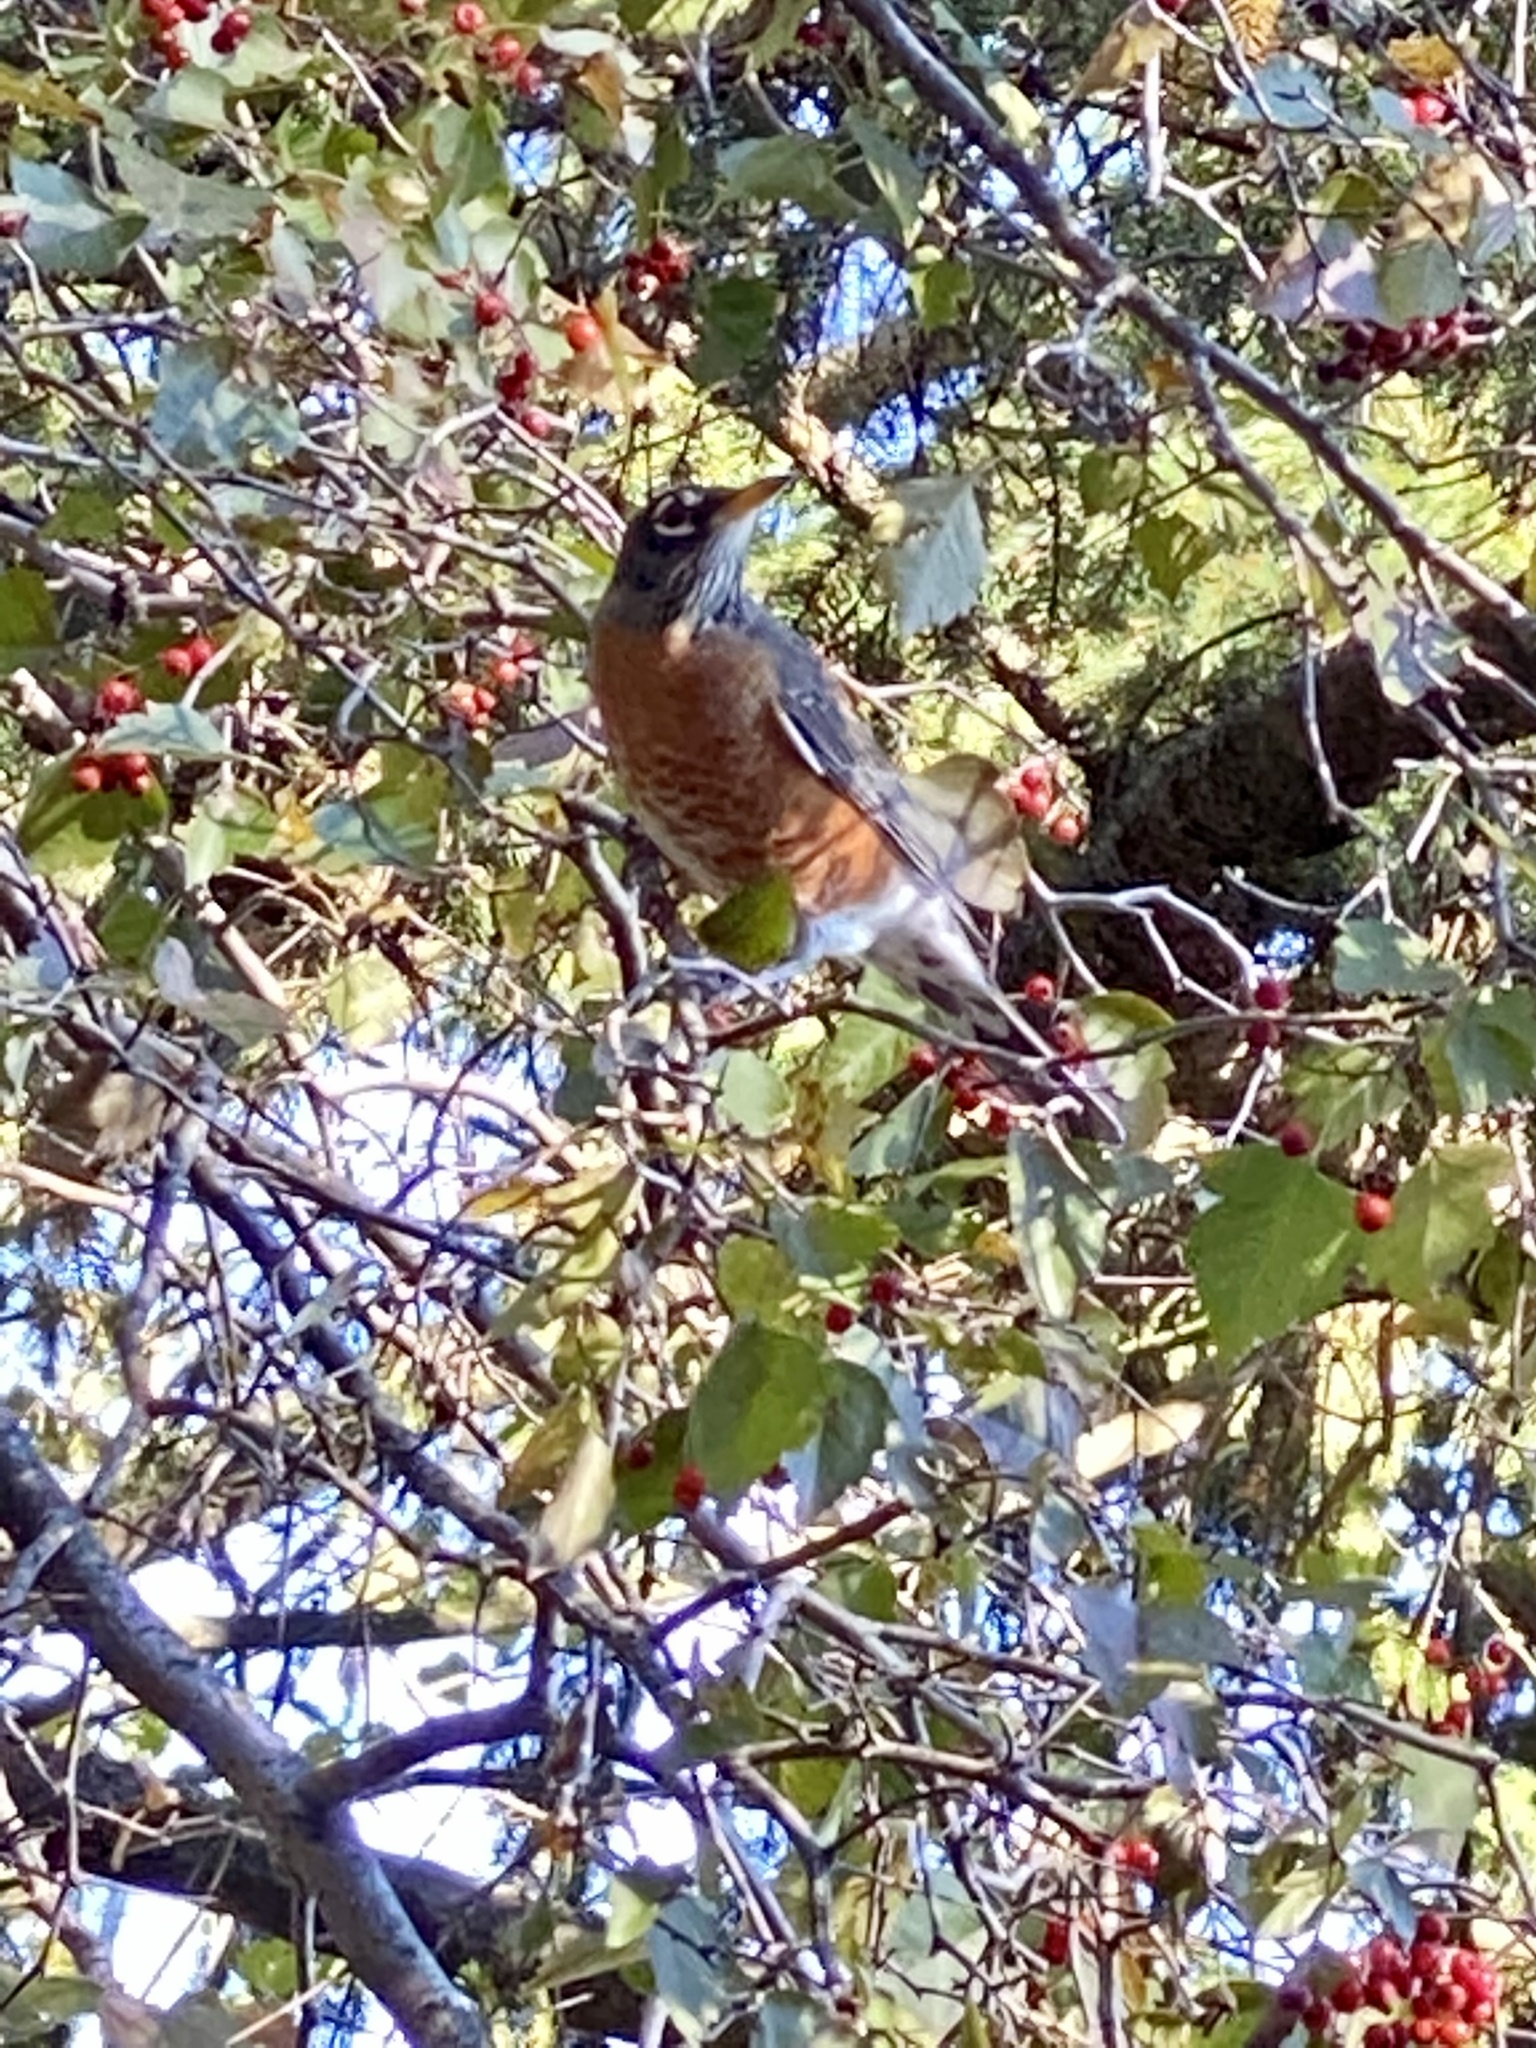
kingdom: Animalia
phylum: Chordata
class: Aves
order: Passeriformes
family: Turdidae
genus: Turdus
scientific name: Turdus migratorius
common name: American robin
